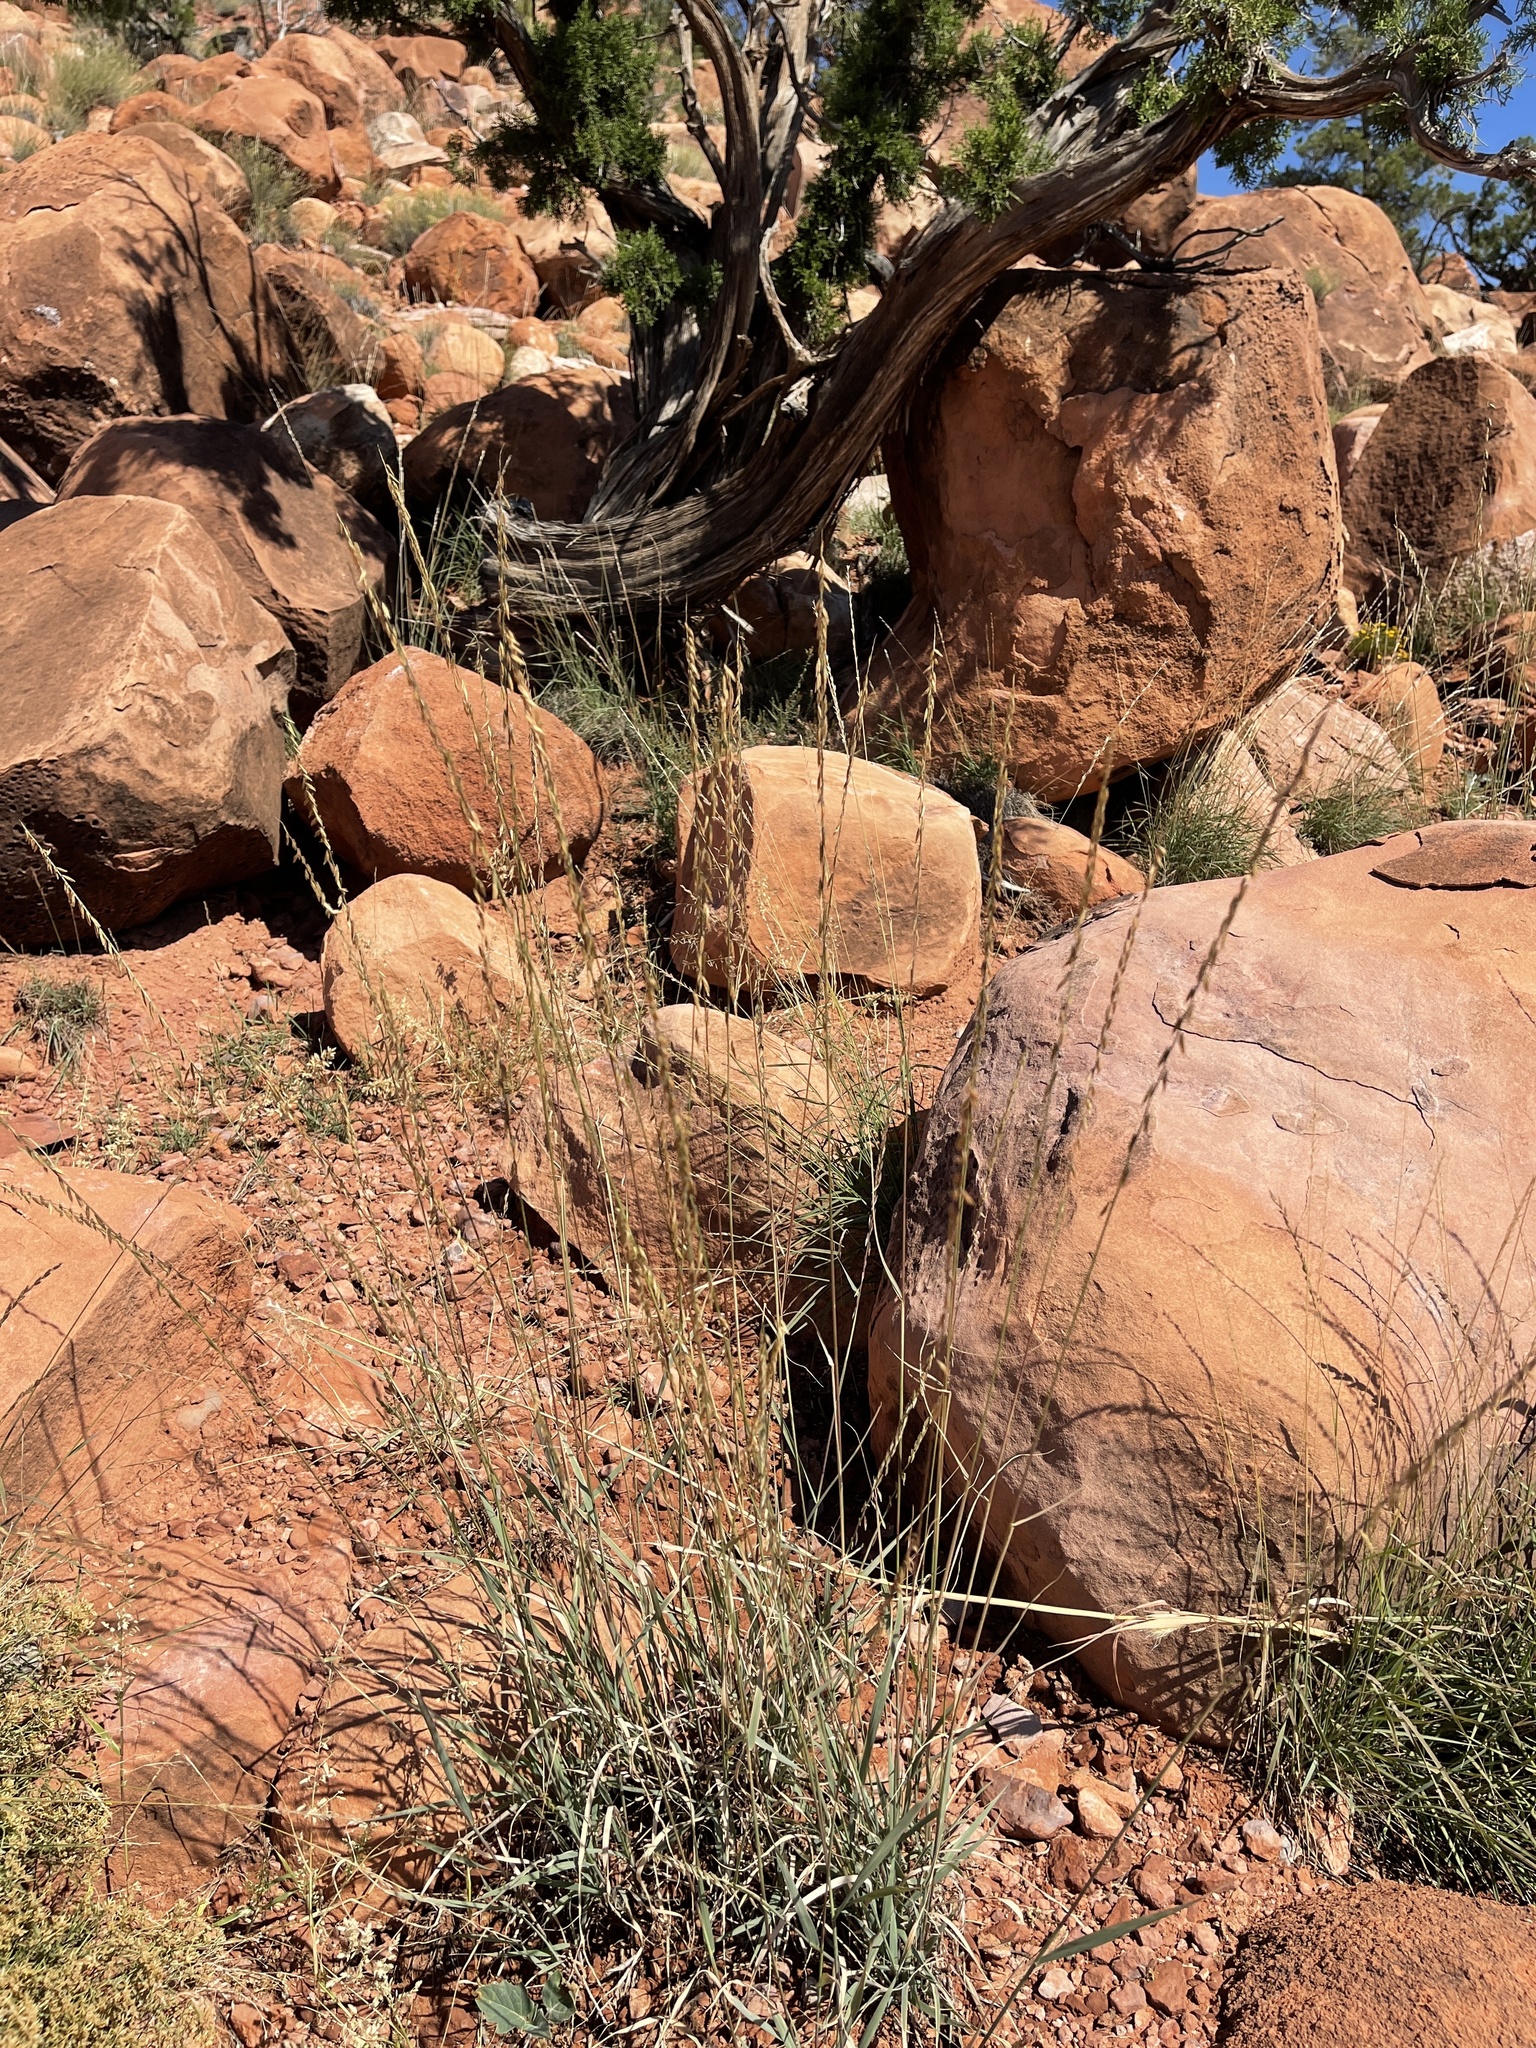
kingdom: Plantae
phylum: Tracheophyta
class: Liliopsida
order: Poales
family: Poaceae
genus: Bouteloua
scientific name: Bouteloua curtipendula
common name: Side-oats grama
